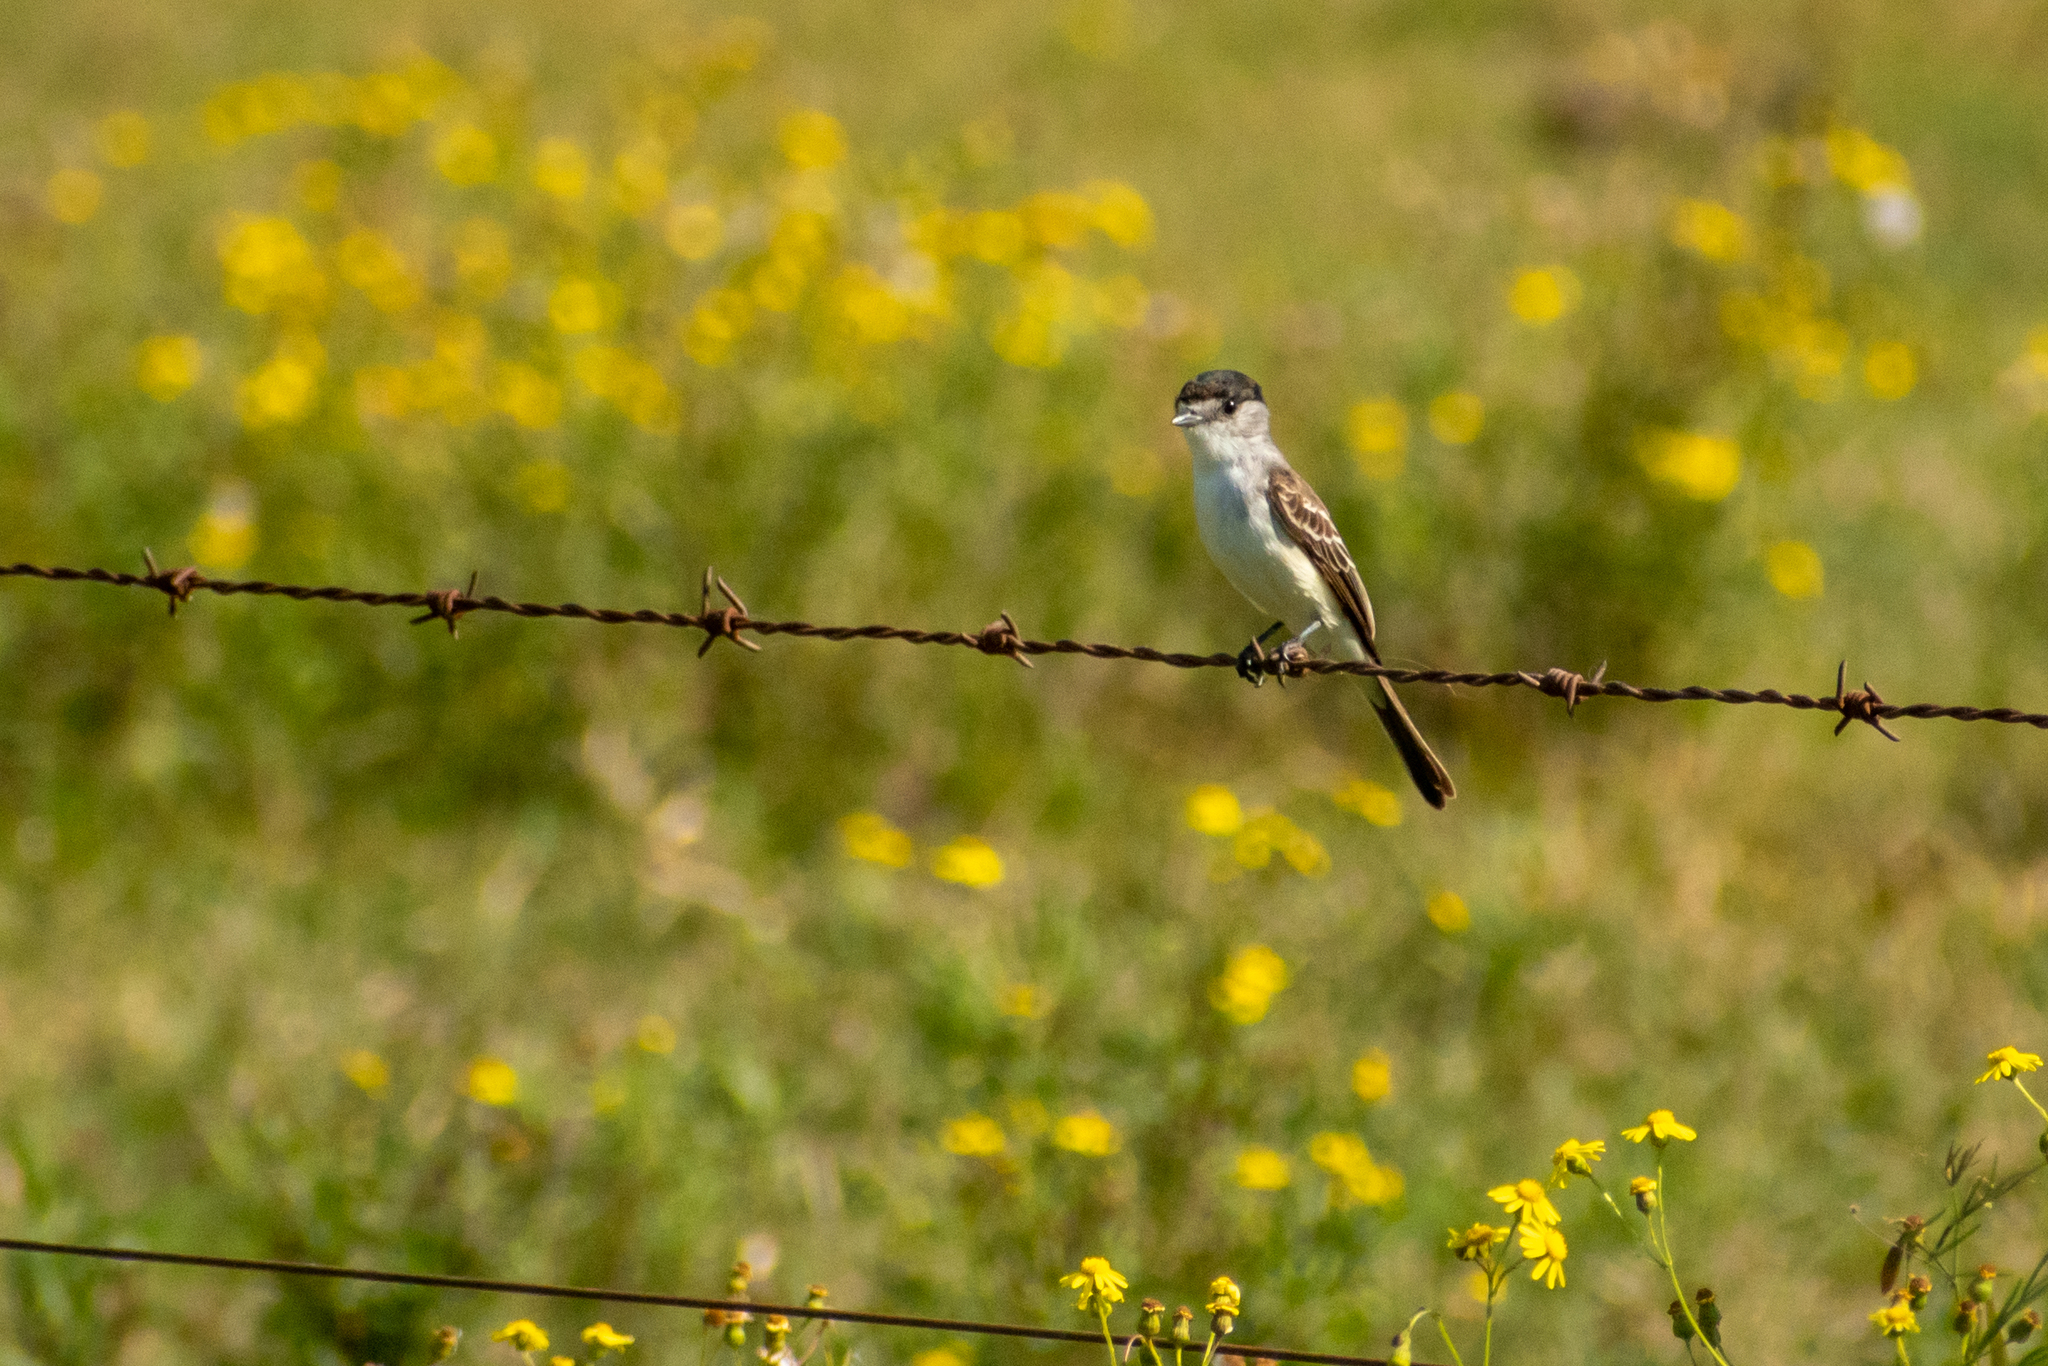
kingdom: Animalia
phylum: Chordata
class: Aves
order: Passeriformes
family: Cotingidae
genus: Xenopsaris
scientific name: Xenopsaris albinucha
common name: White-naped xenopsaris
